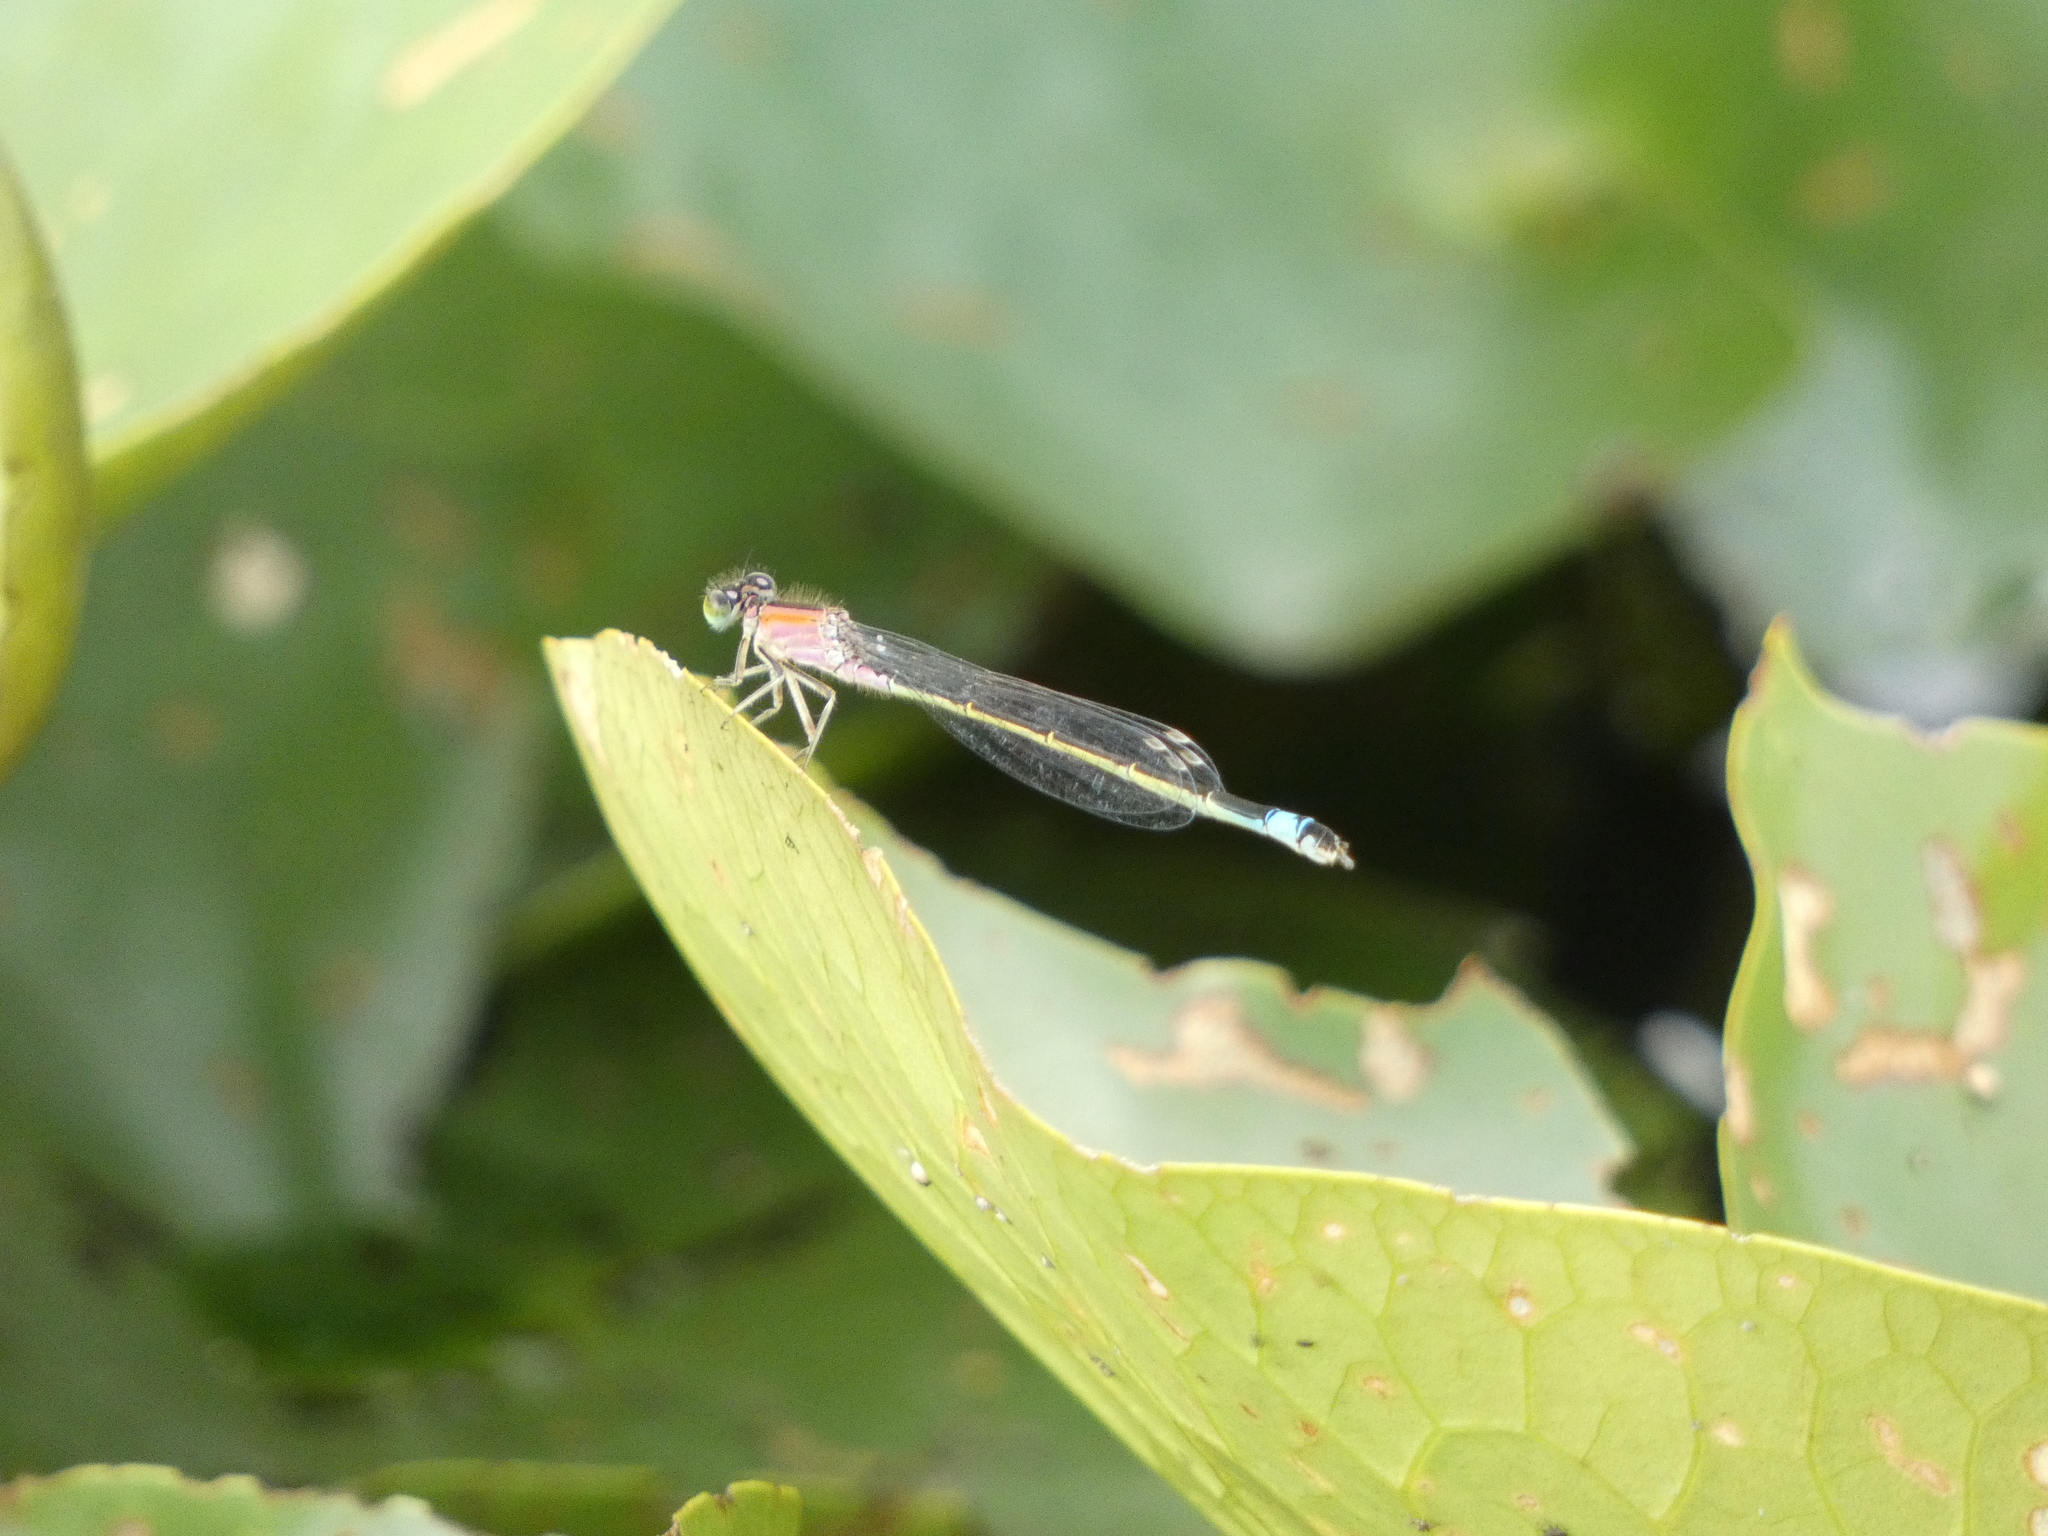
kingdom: Animalia
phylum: Arthropoda
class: Insecta
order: Odonata
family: Coenagrionidae
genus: Ischnura
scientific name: Ischnura elegans
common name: Blue-tailed damselfly
